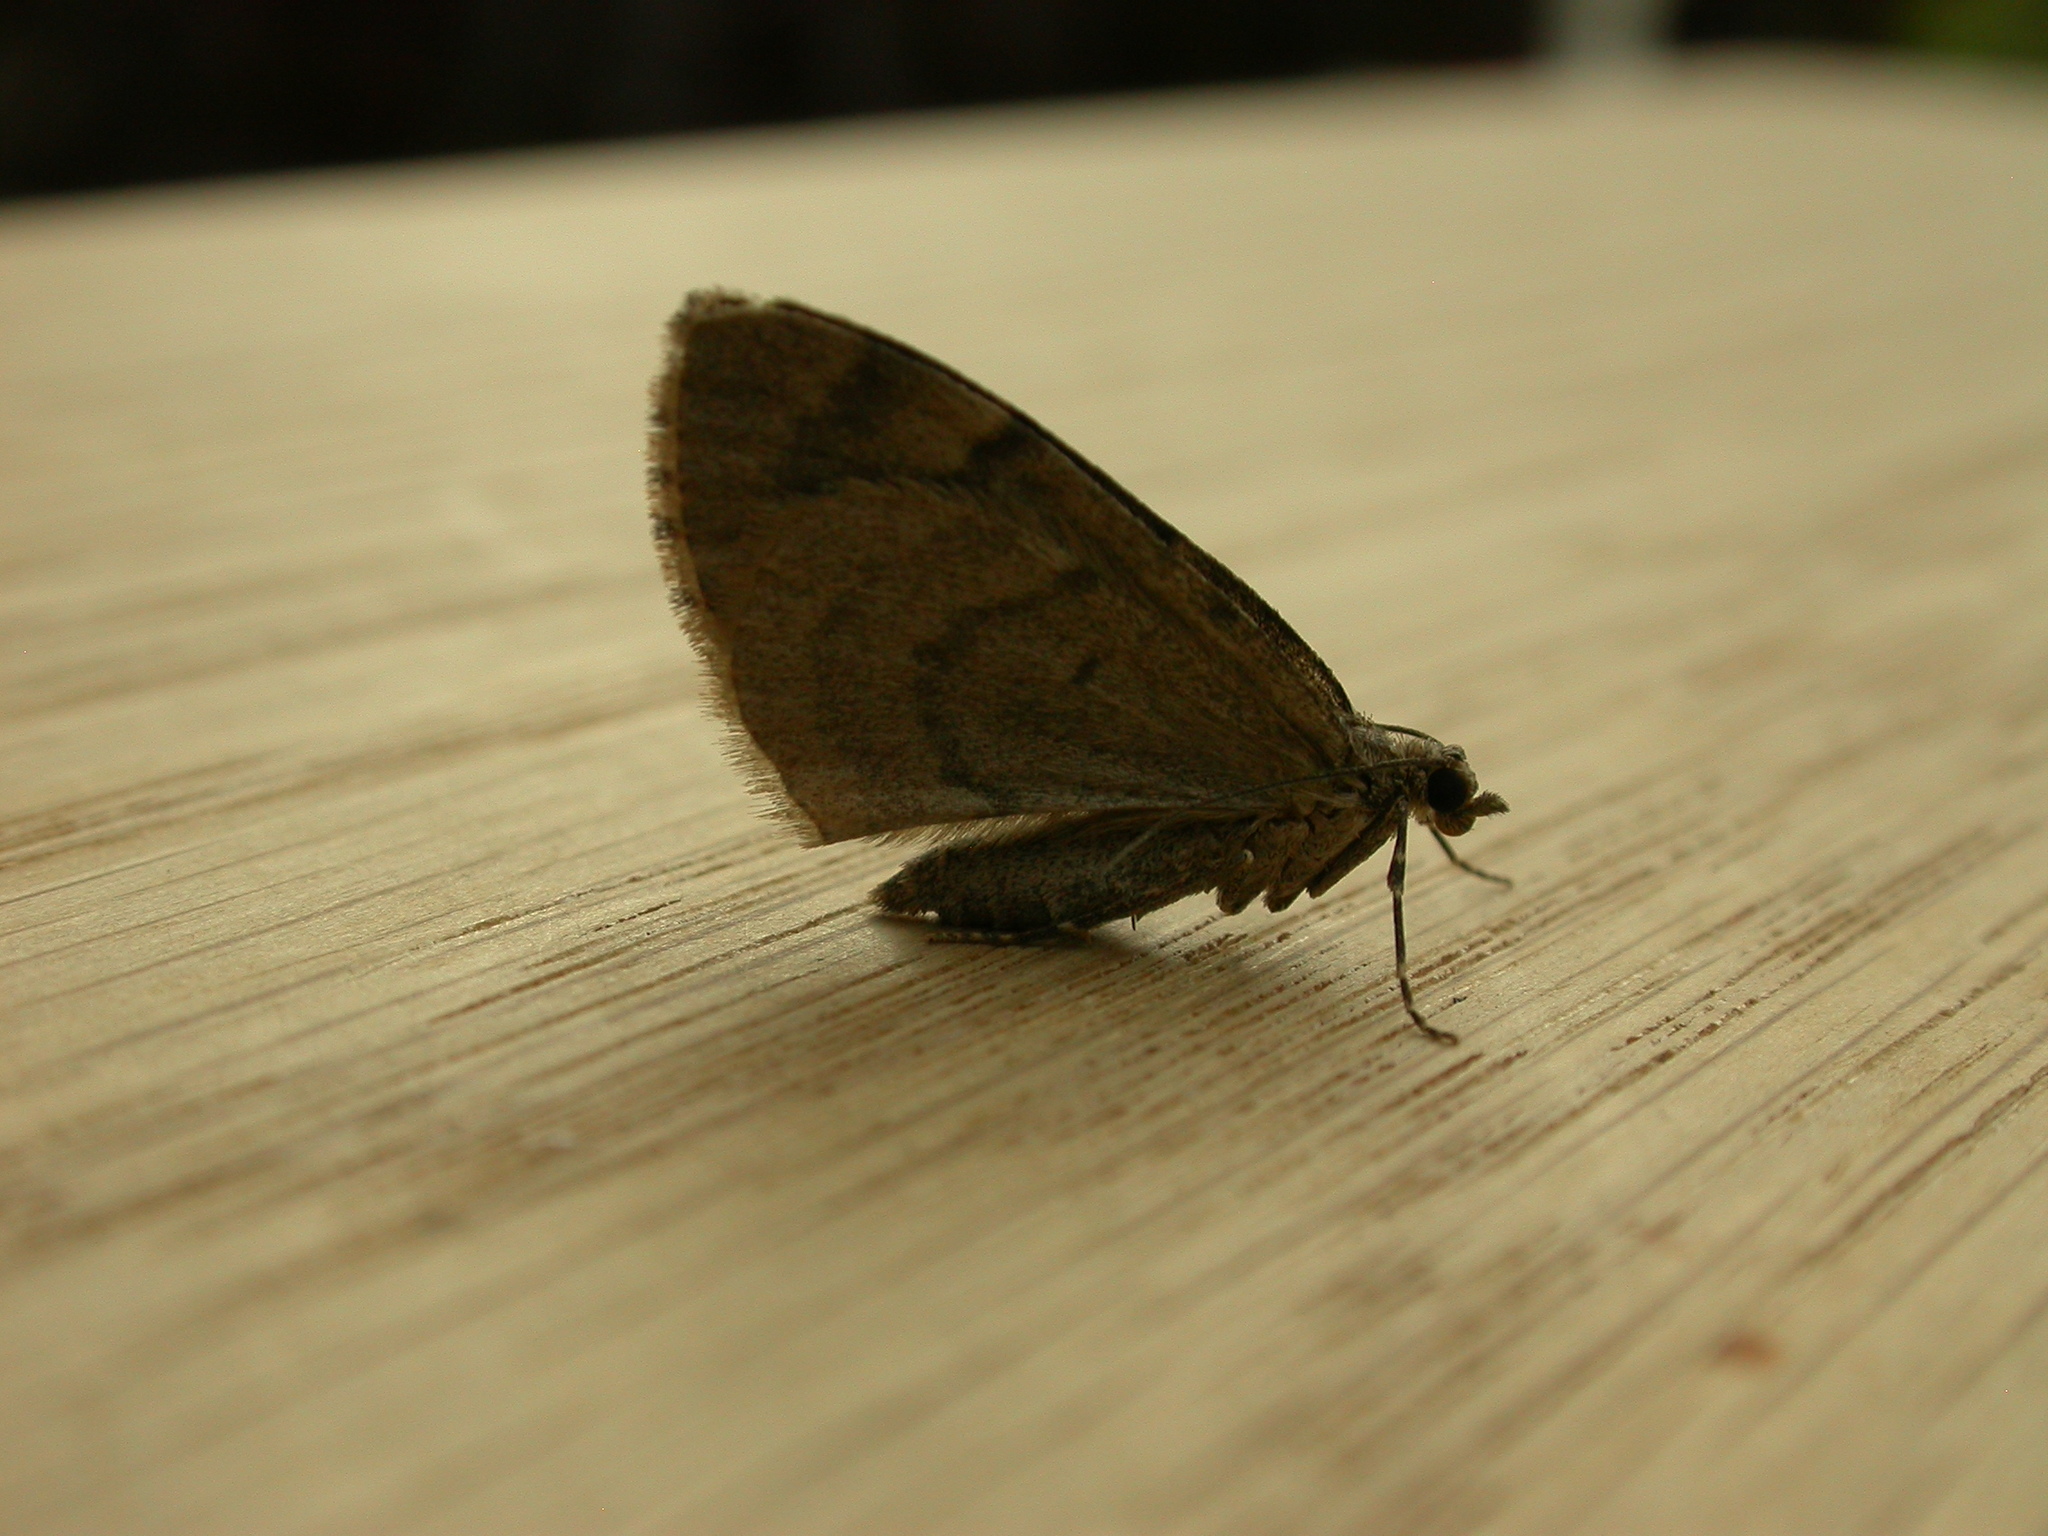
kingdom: Animalia
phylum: Arthropoda
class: Insecta
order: Lepidoptera
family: Geometridae
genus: Thera
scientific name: Thera obeliscata
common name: Grey pine carpet
